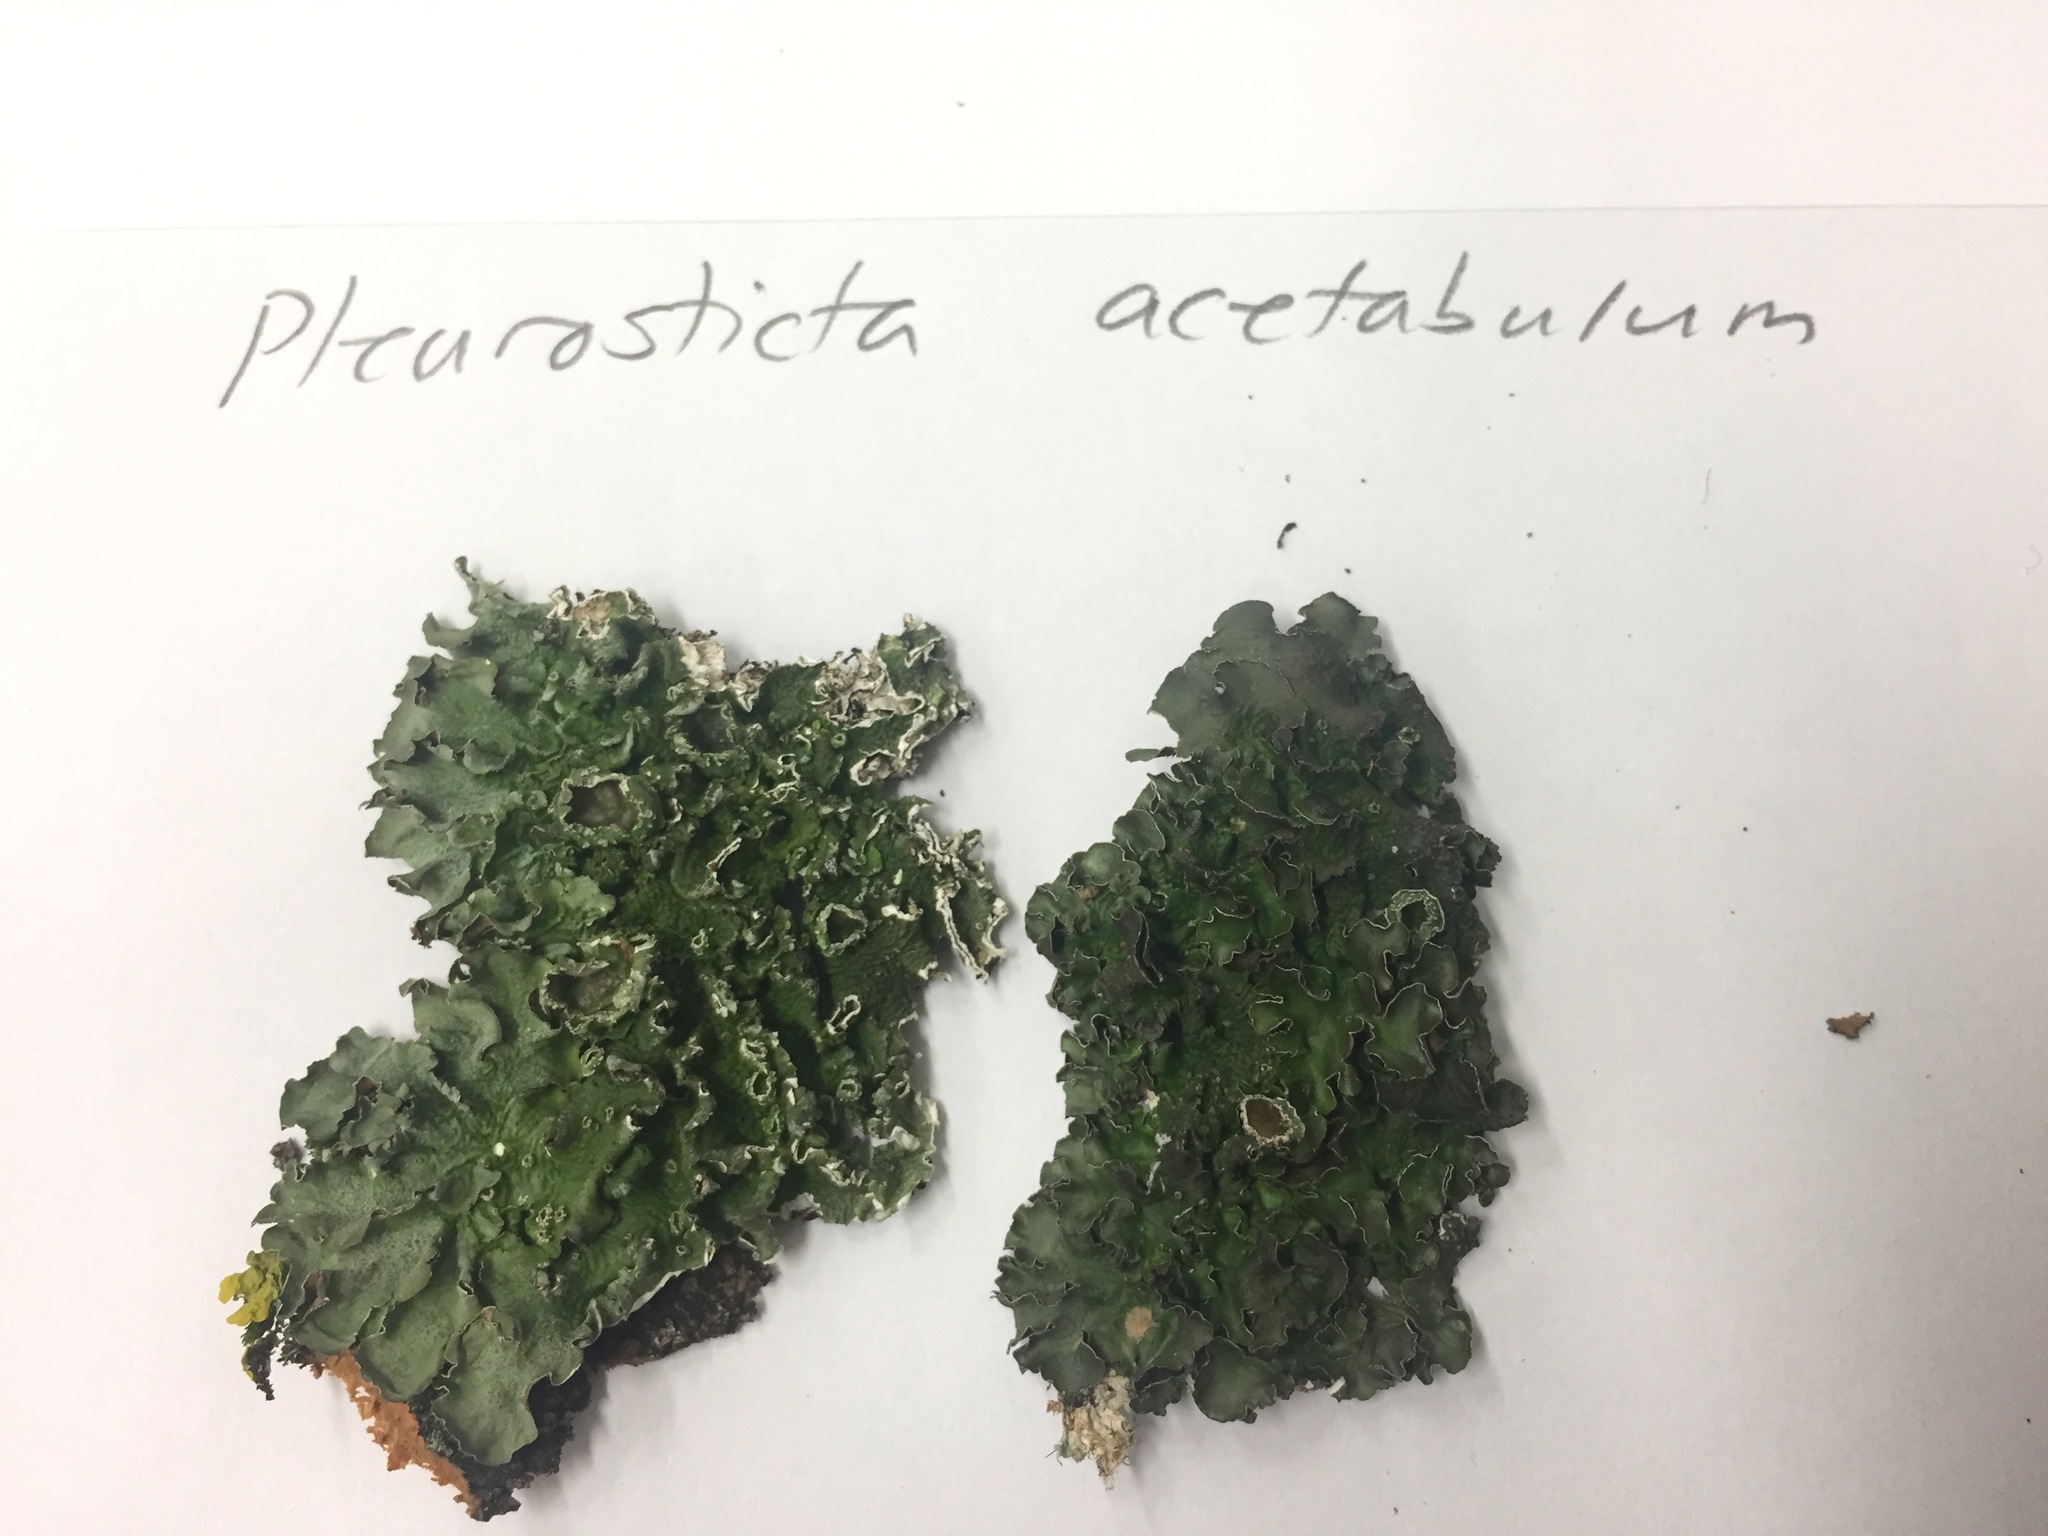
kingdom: Fungi
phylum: Ascomycota
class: Lecanoromycetes
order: Lecanorales
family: Parmeliaceae
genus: Pleurosticta
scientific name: Pleurosticta acetabulum
